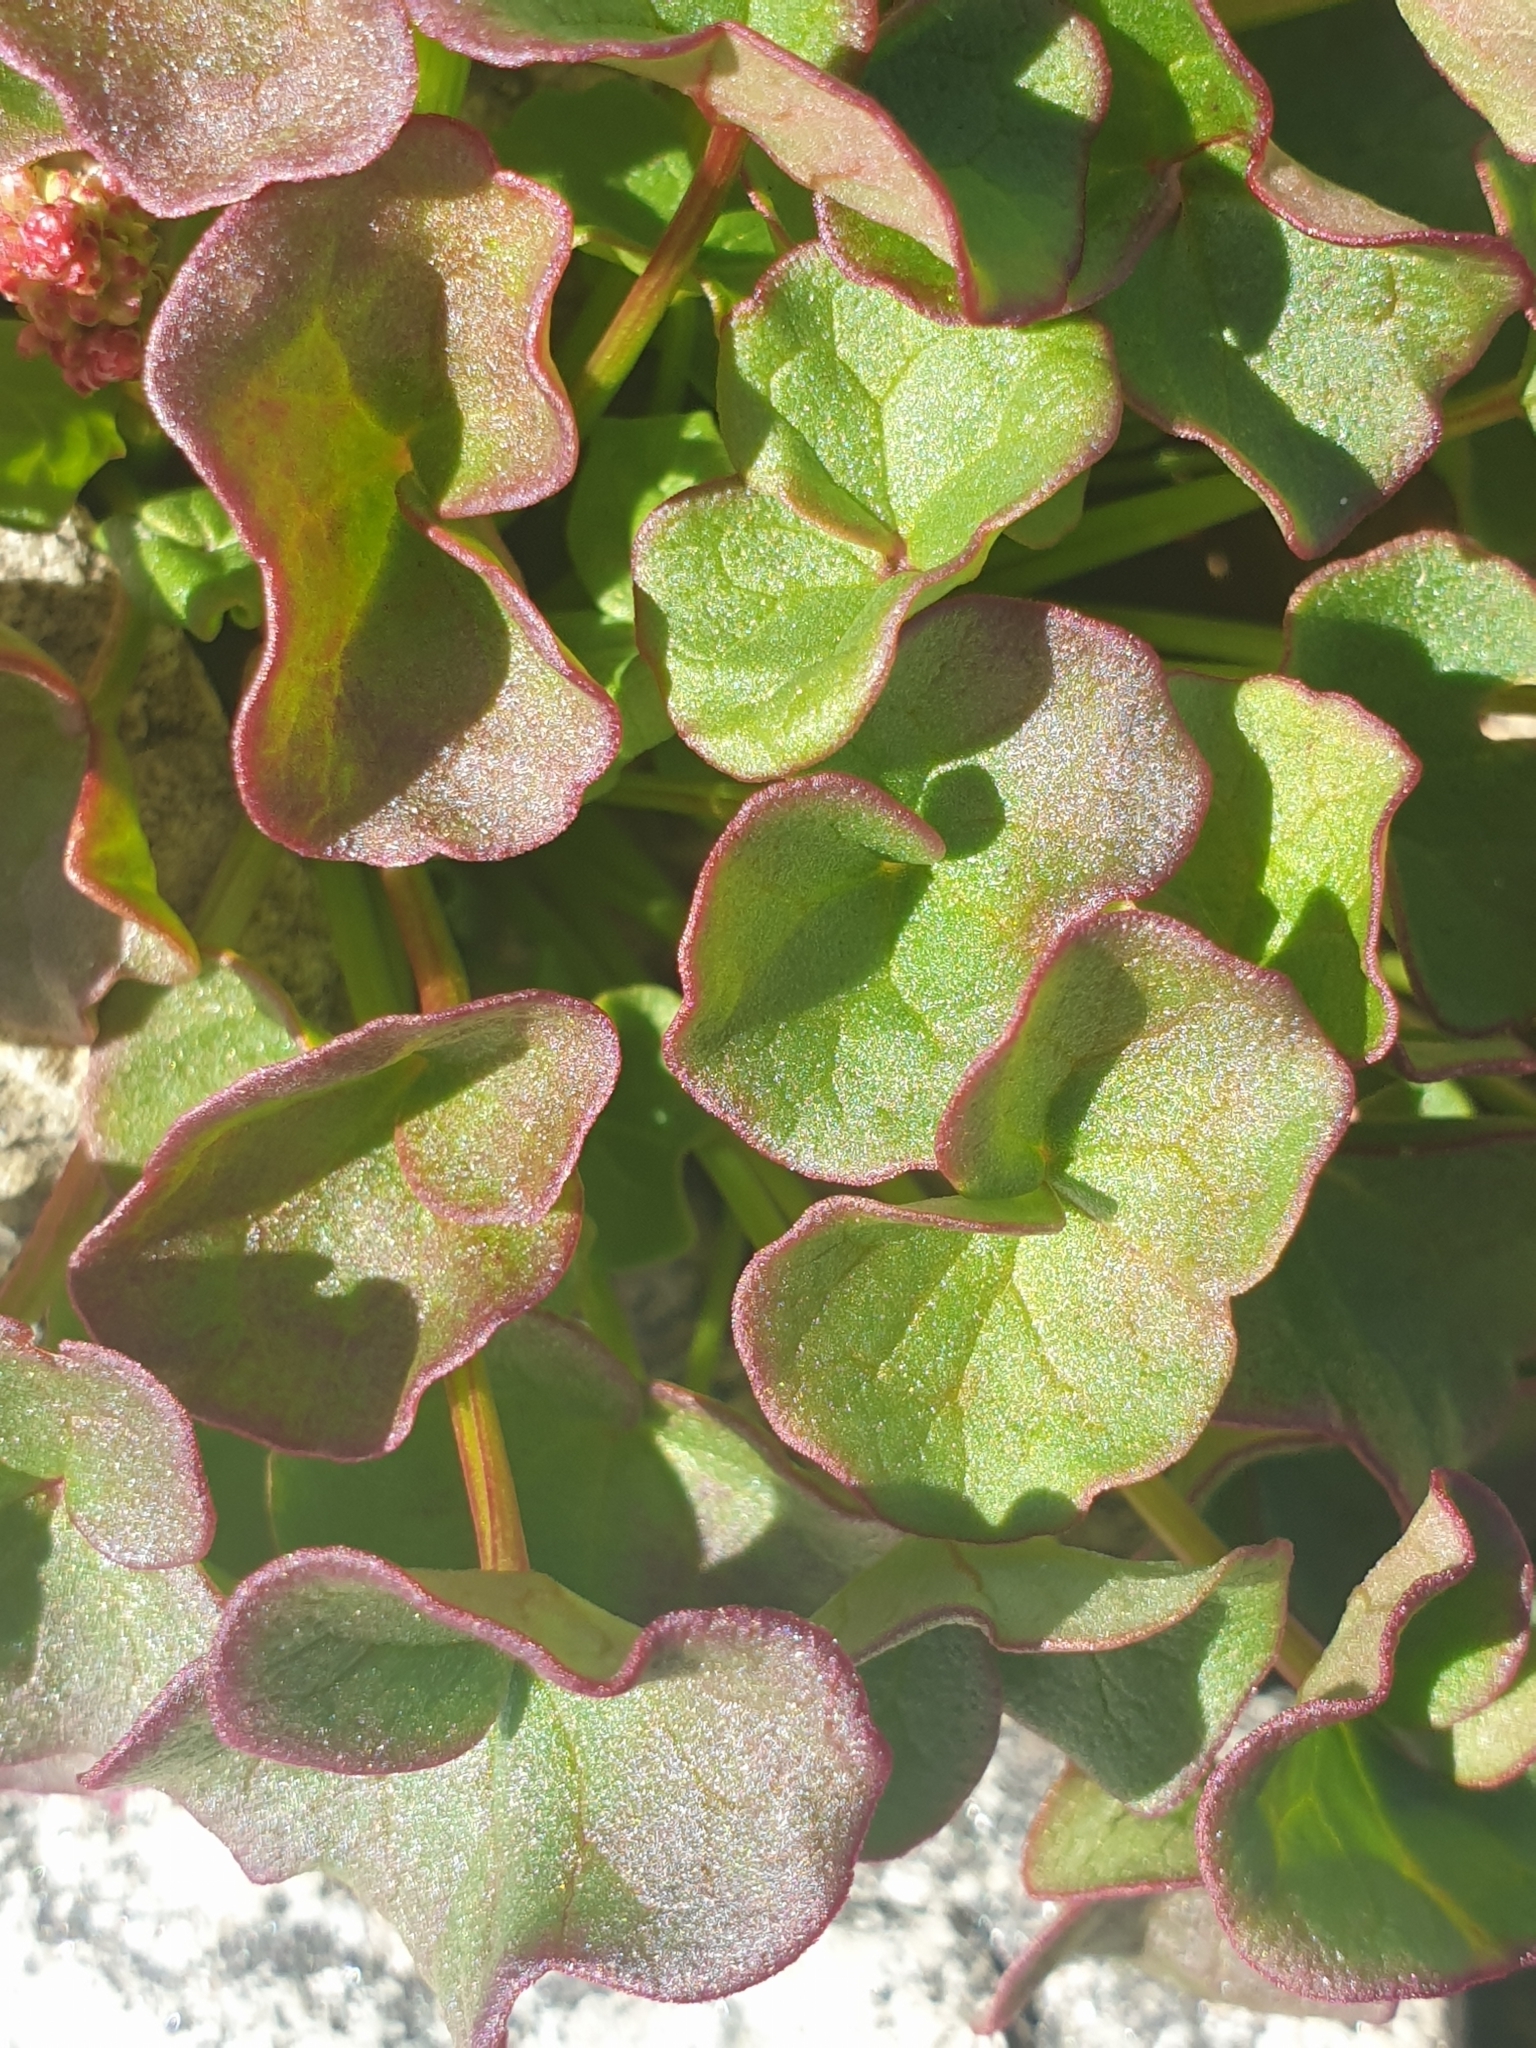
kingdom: Plantae
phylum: Tracheophyta
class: Magnoliopsida
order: Caryophyllales
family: Polygonaceae
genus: Oxyria
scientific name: Oxyria digyna
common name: Alpine mountain-sorrel
